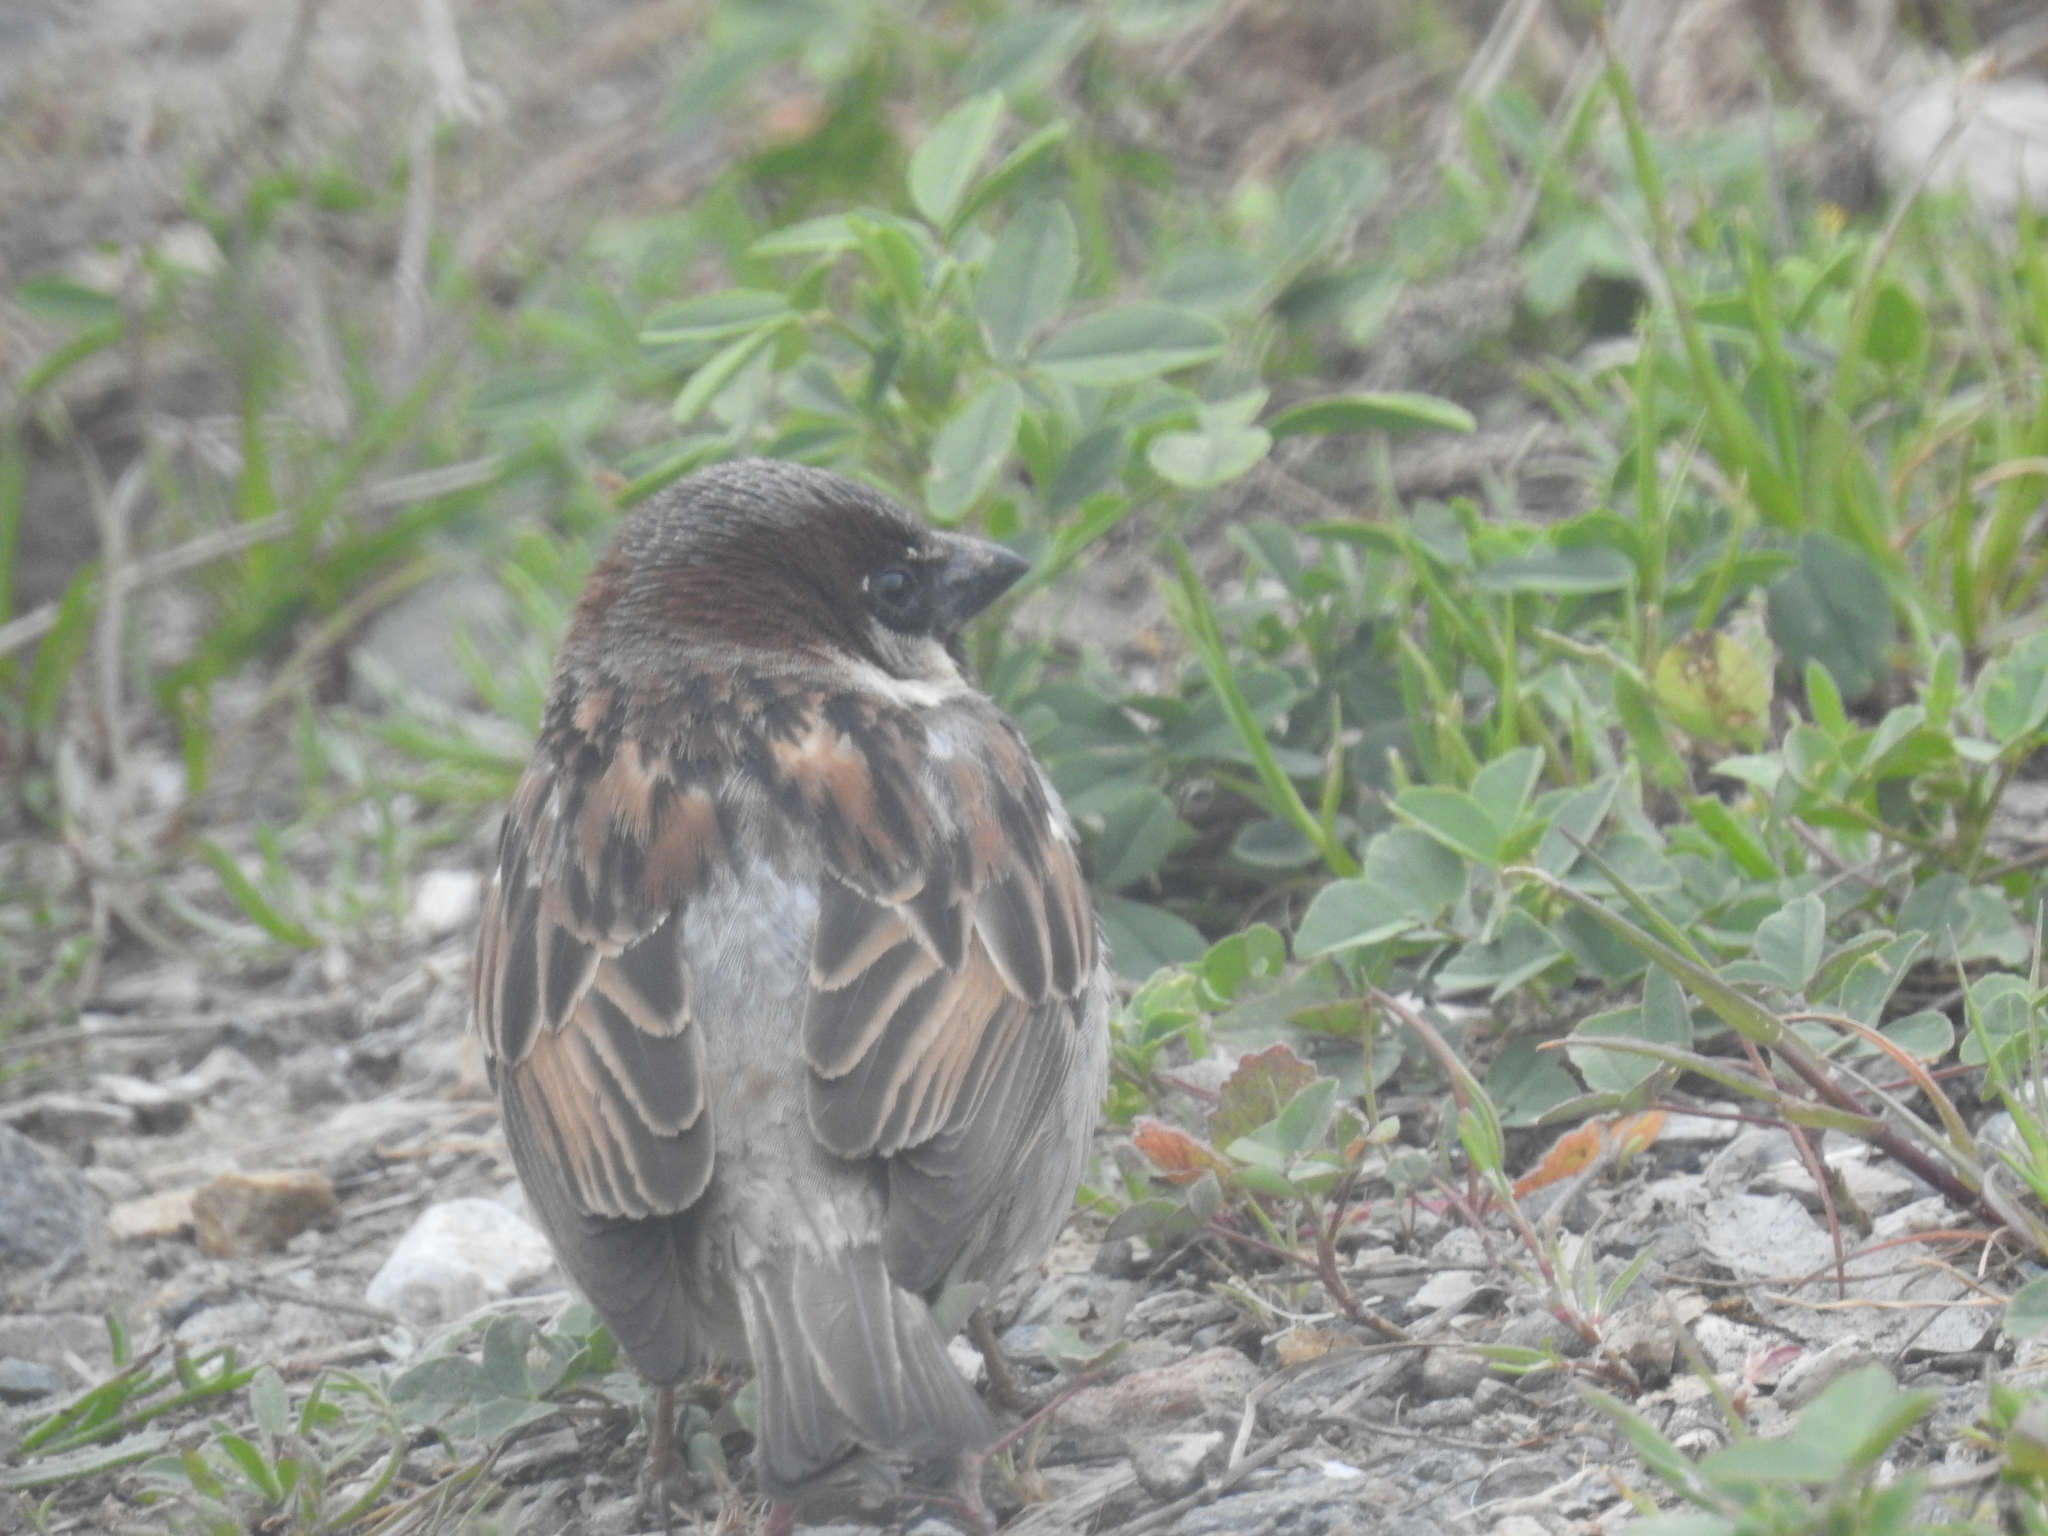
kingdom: Animalia
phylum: Chordata
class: Aves
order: Passeriformes
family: Passeridae
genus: Passer
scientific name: Passer domesticus
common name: House sparrow
